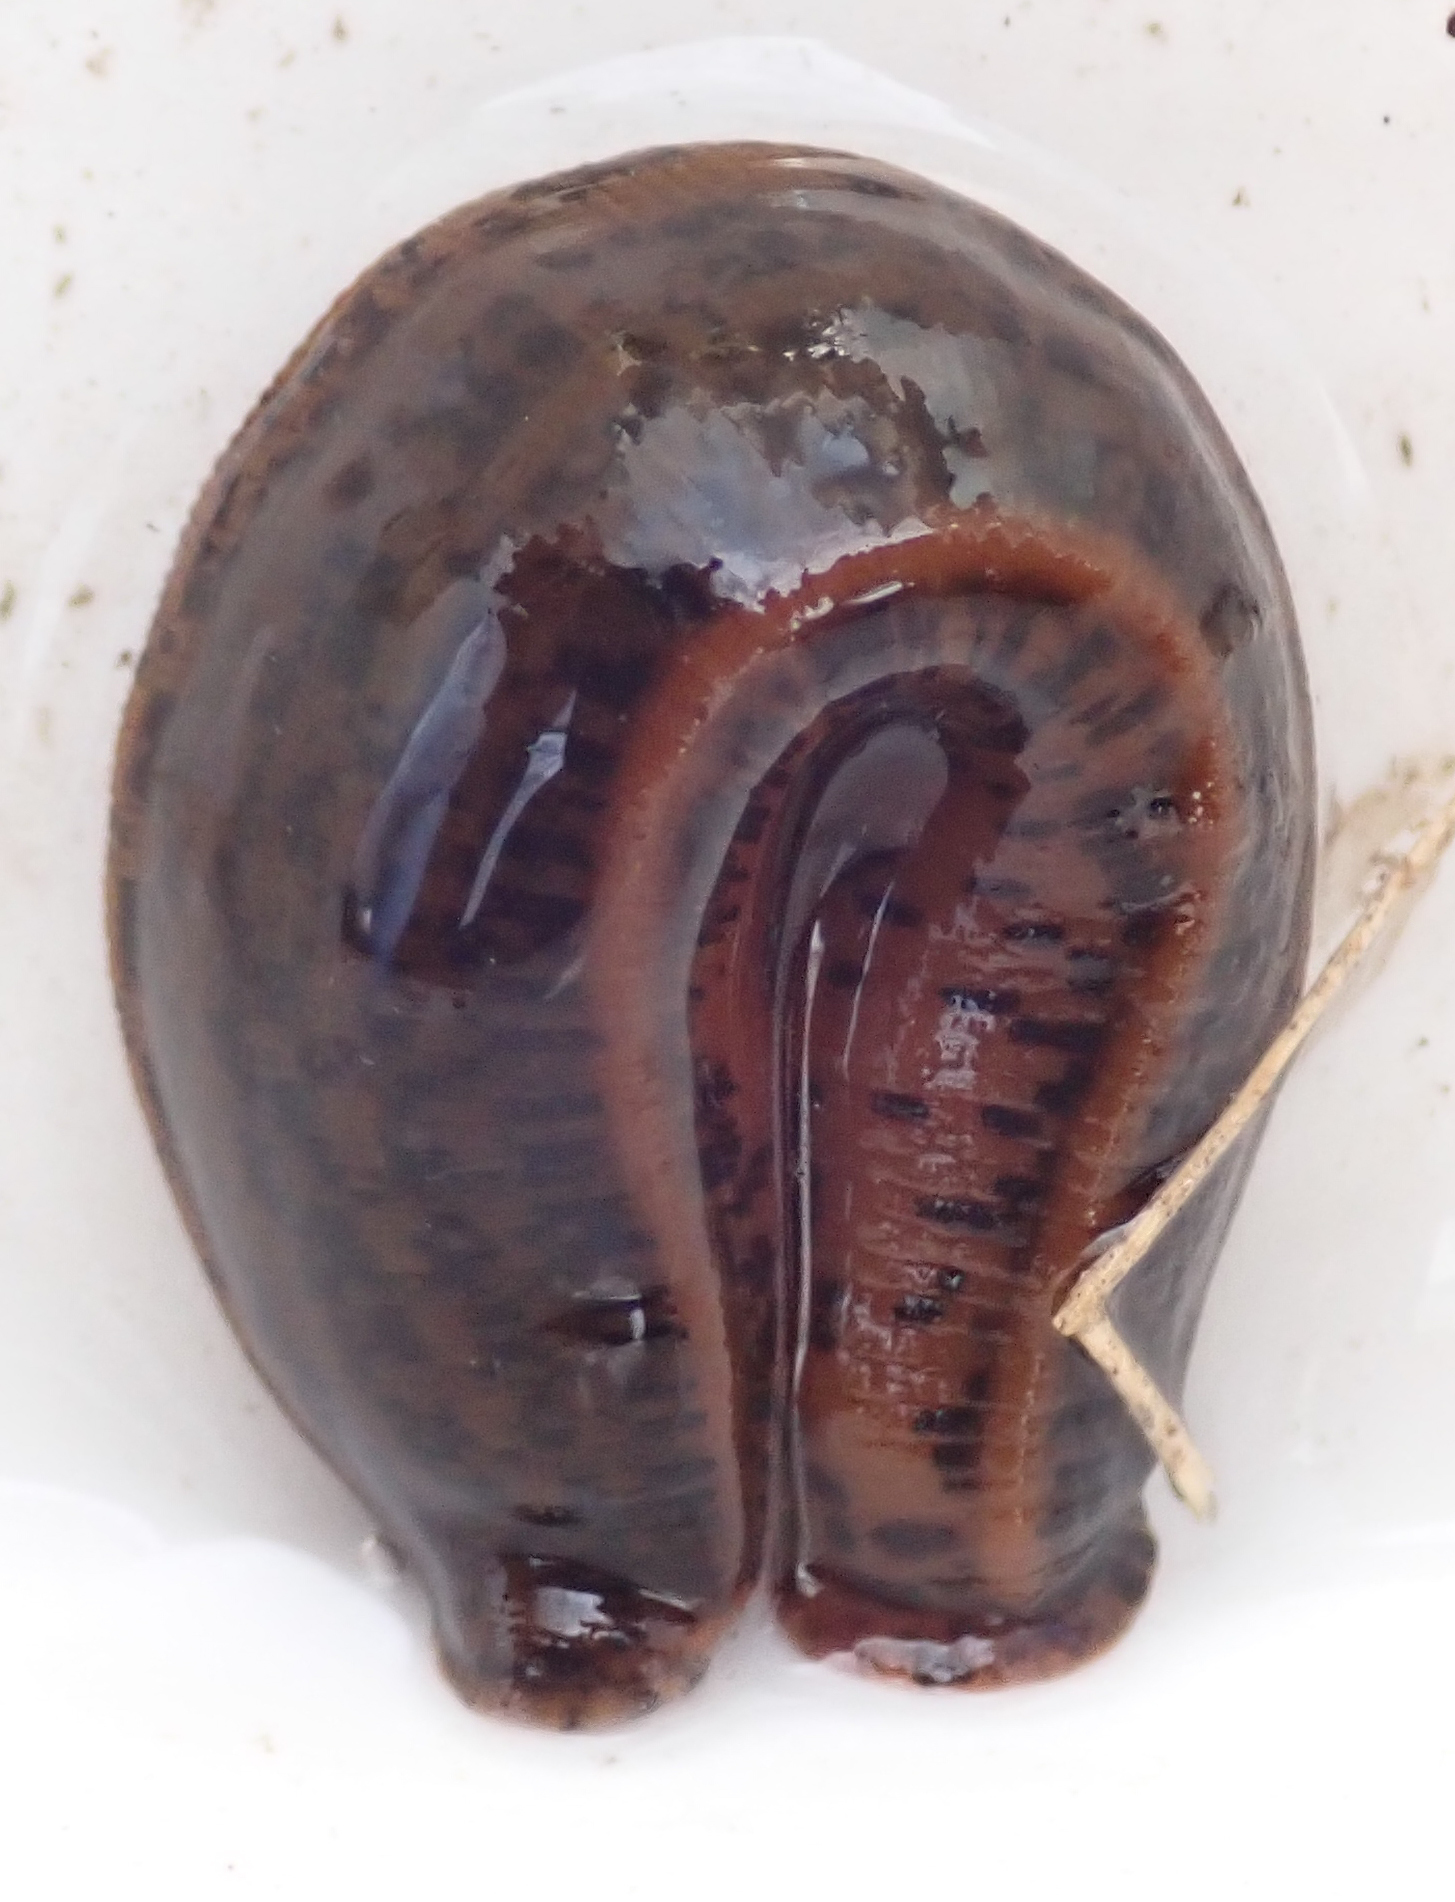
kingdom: Animalia
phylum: Annelida
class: Clitellata
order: Arhynchobdellida
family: Hirudinidae
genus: Asiaticobdella
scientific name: Asiaticobdella fenestrata
